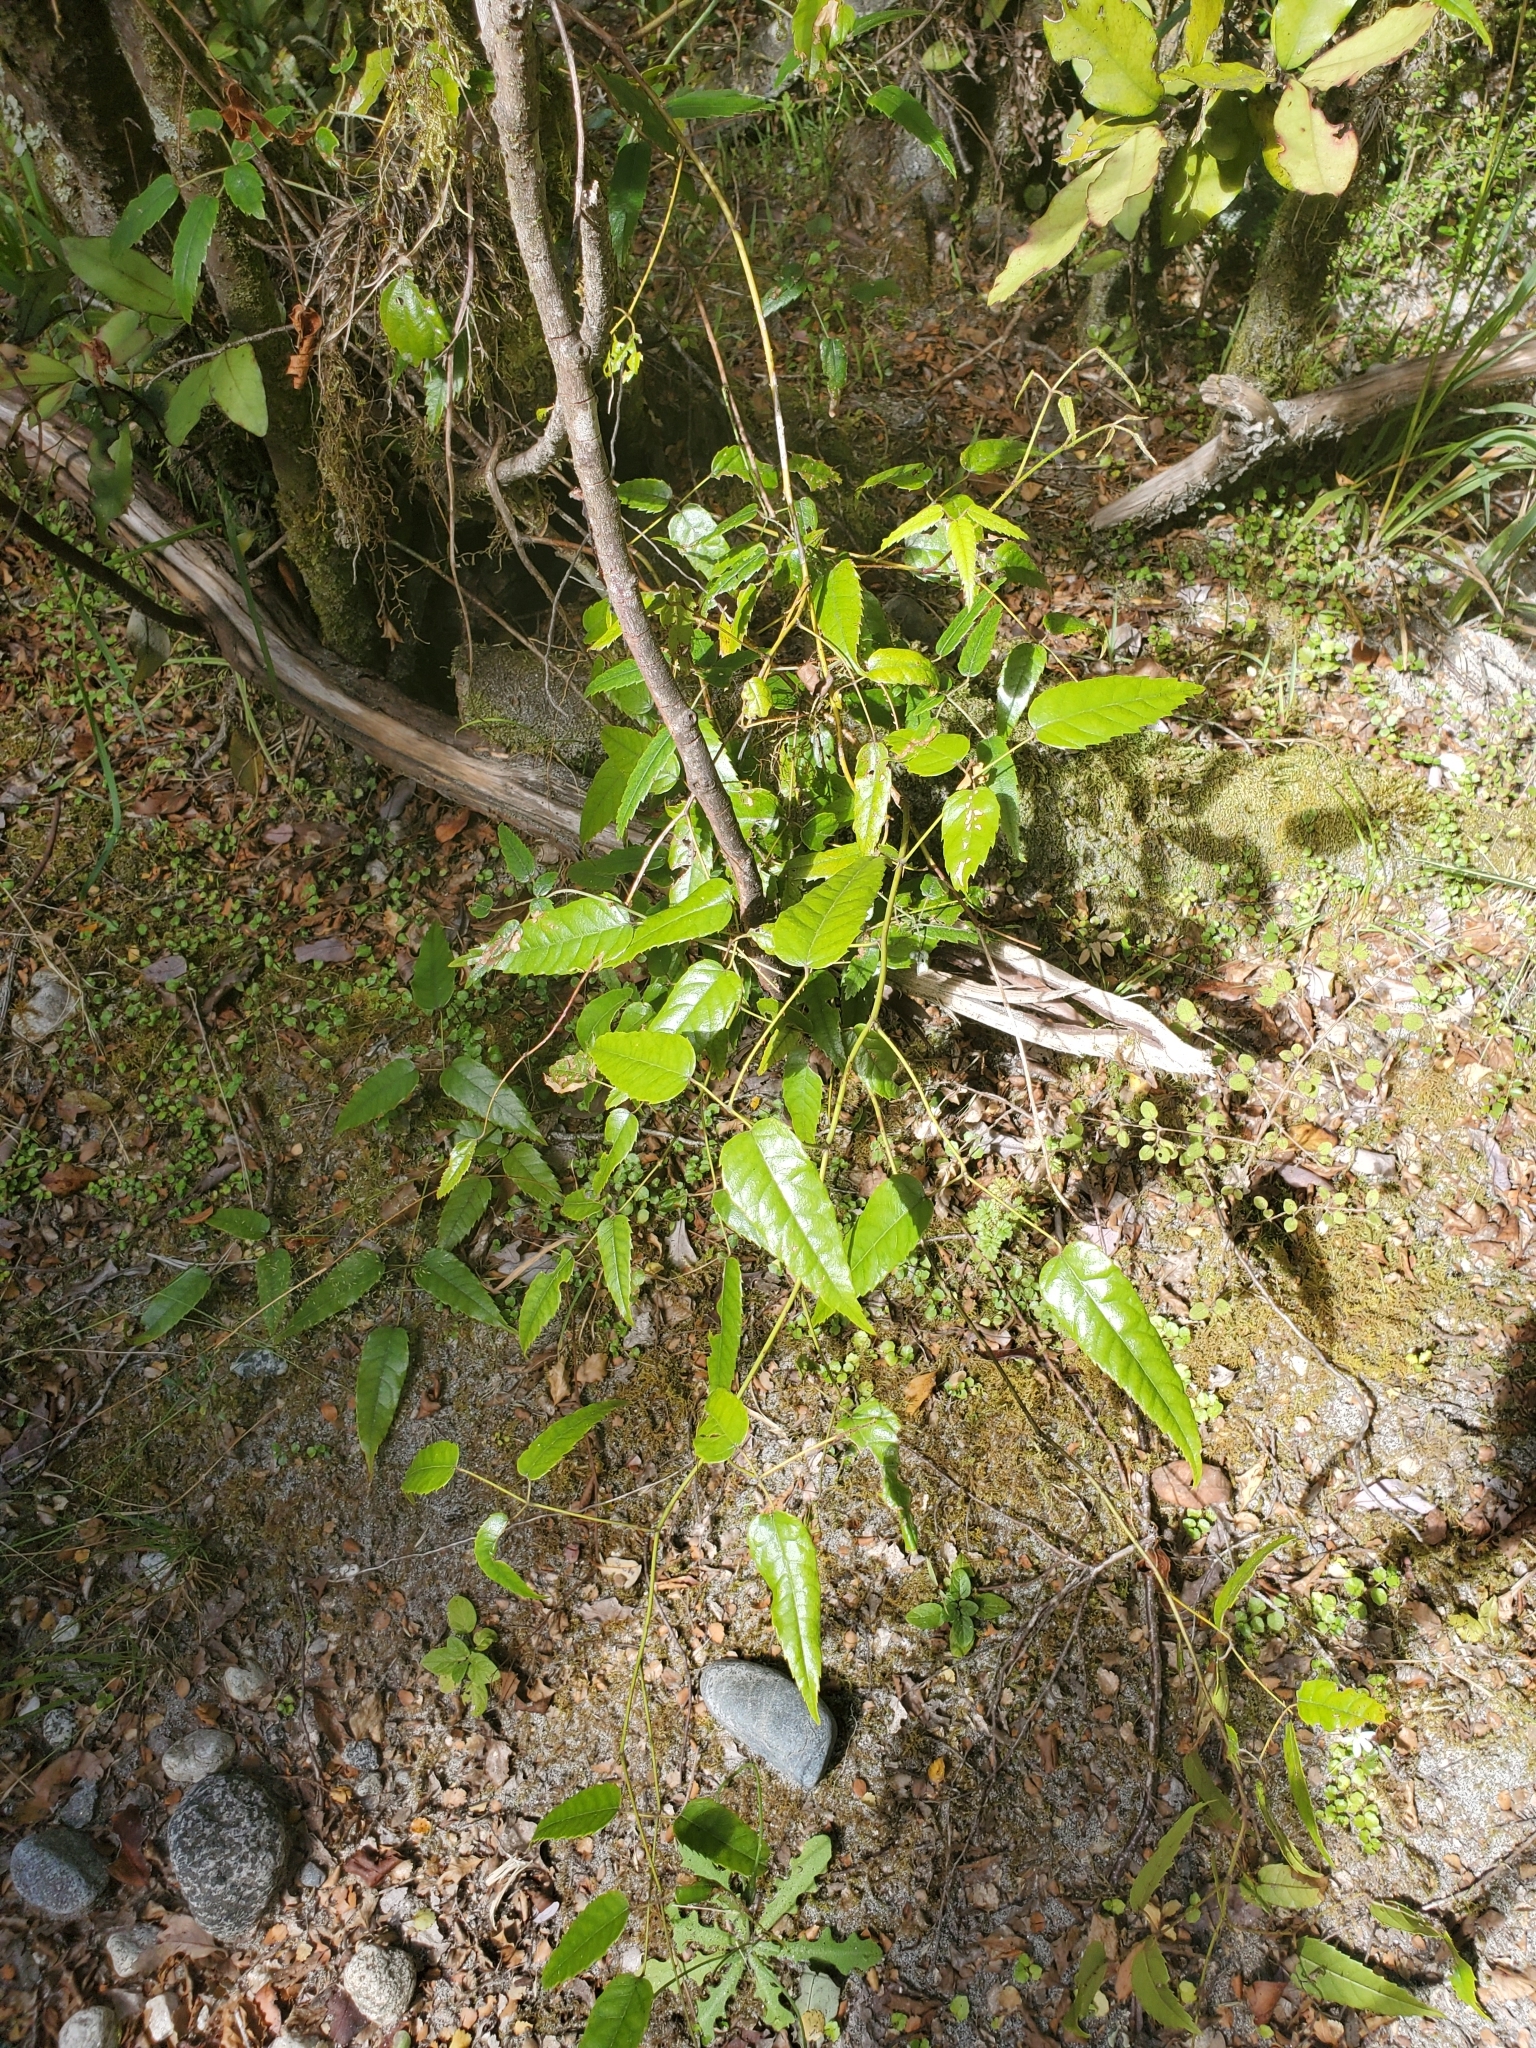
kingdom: Plantae
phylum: Tracheophyta
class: Magnoliopsida
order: Rosales
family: Rosaceae
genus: Rubus
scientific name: Rubus cissoides
